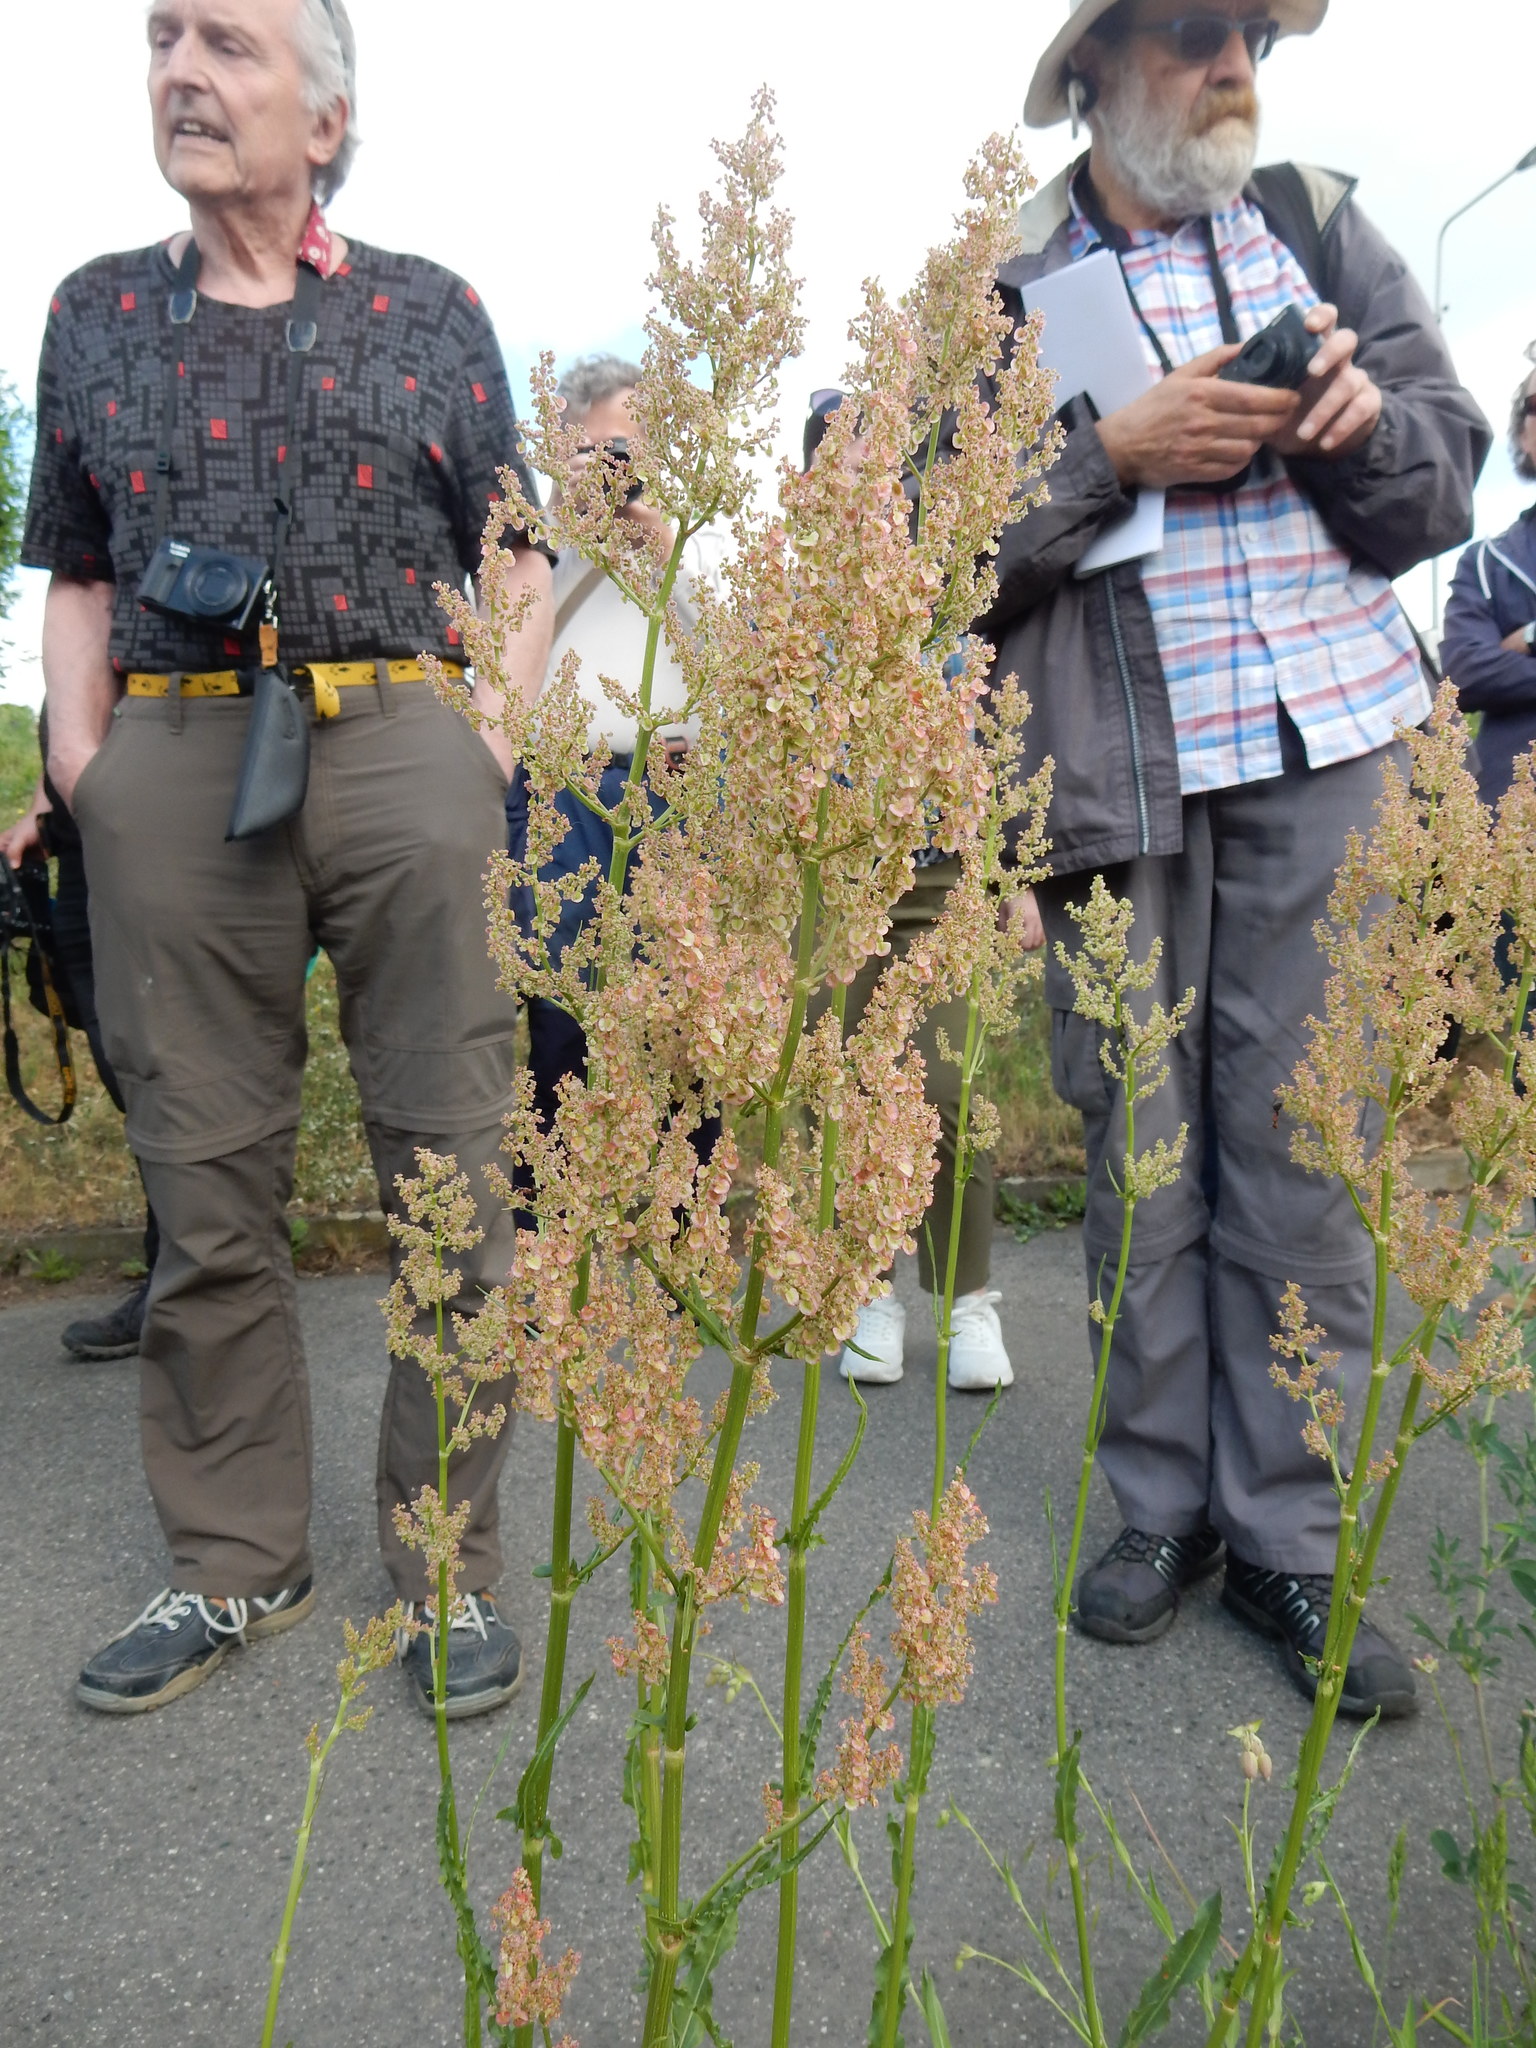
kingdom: Plantae
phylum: Tracheophyta
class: Magnoliopsida
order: Caryophyllales
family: Polygonaceae
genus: Rumex
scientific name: Rumex thyrsiflorus
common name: Garden sorrel
